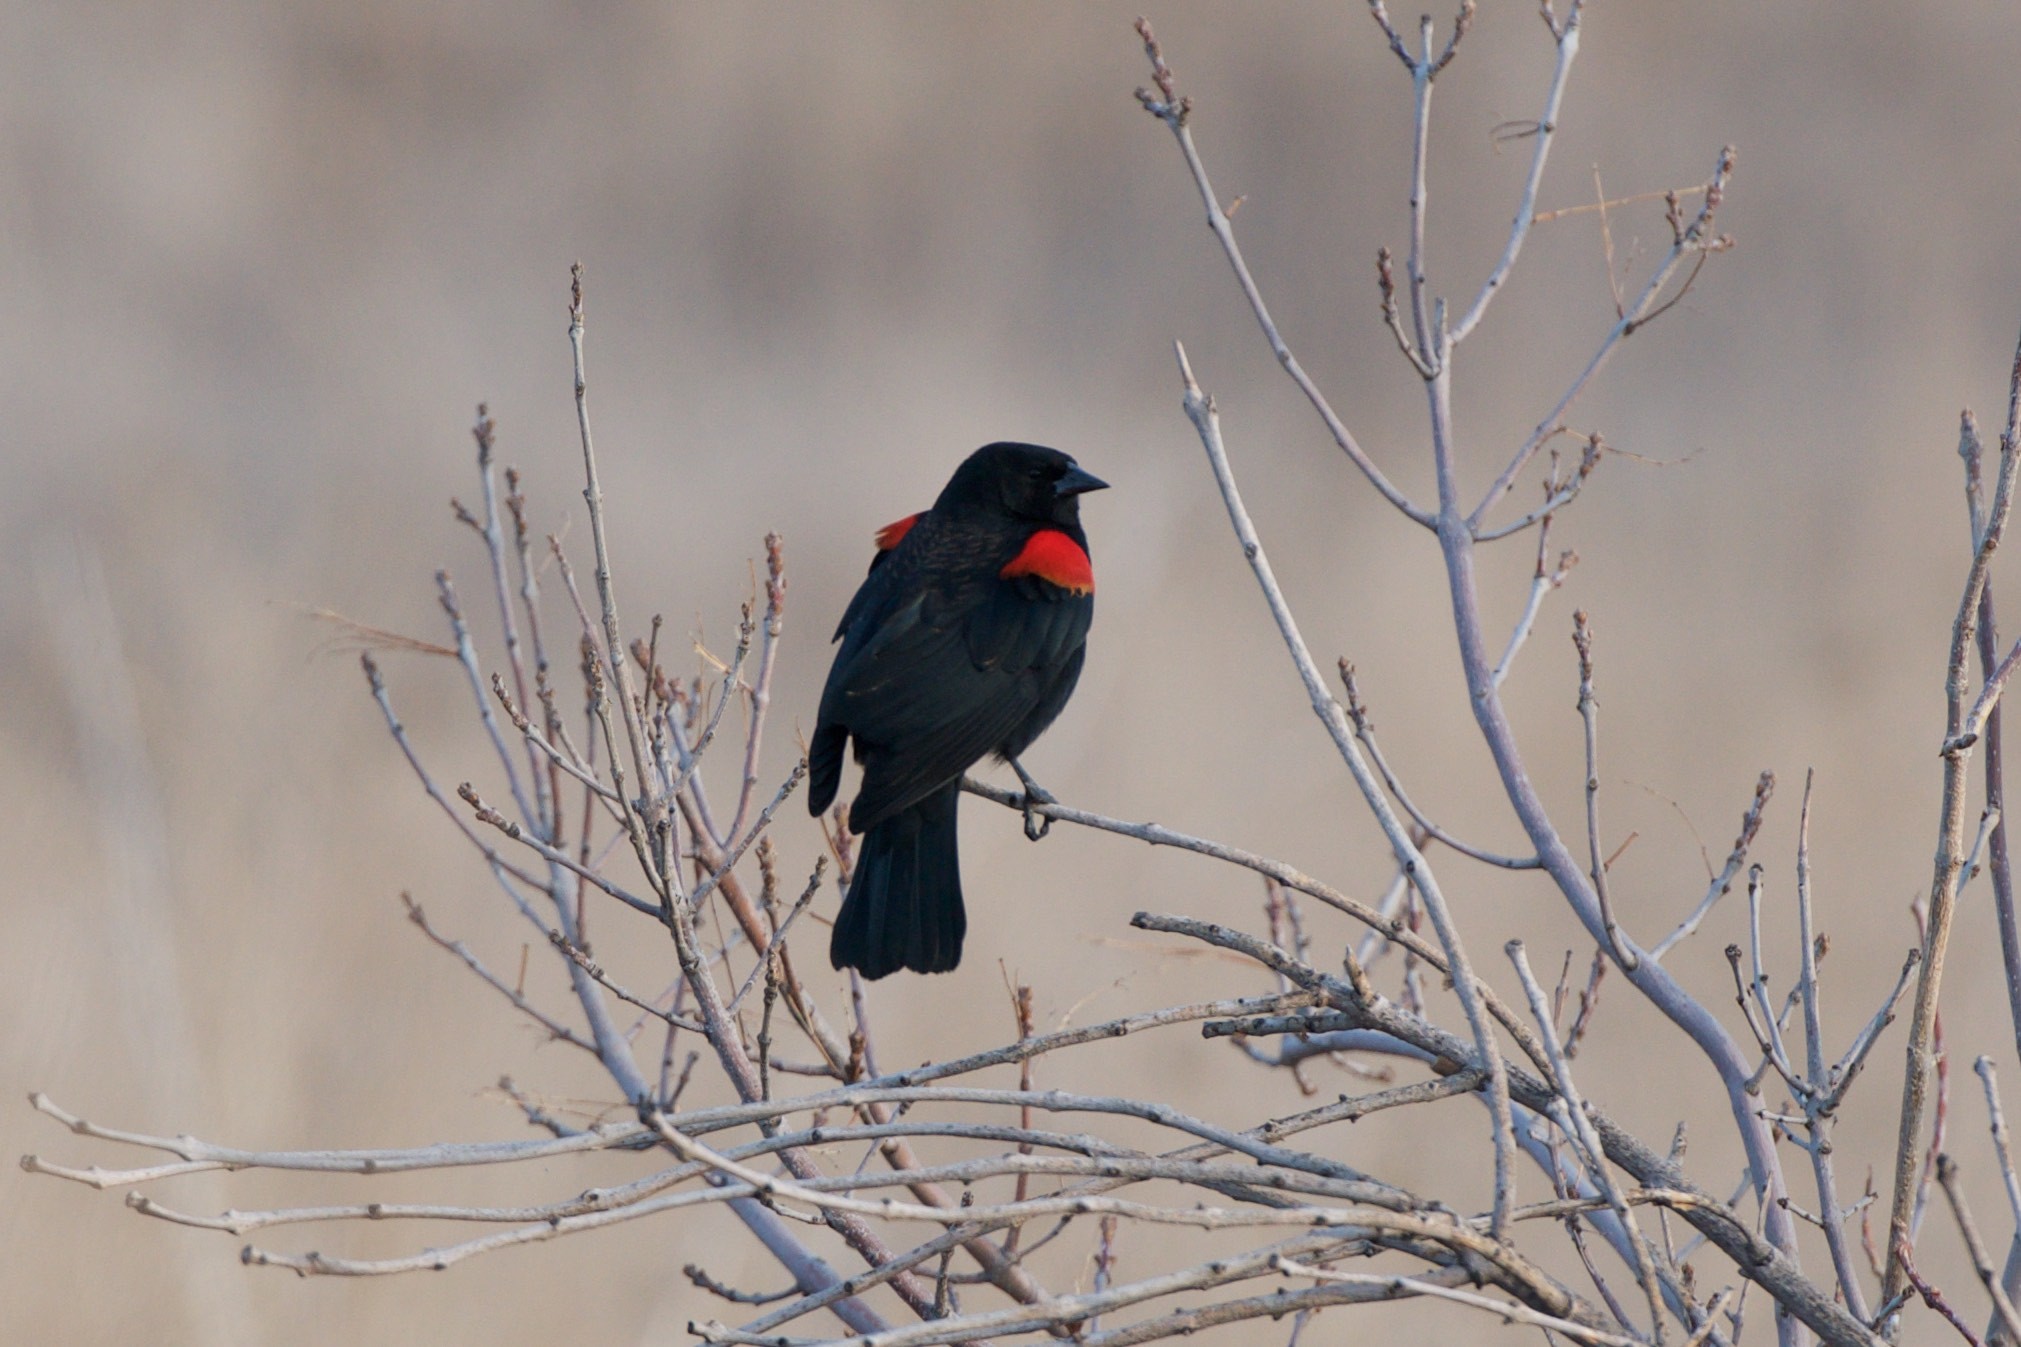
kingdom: Animalia
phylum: Chordata
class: Aves
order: Passeriformes
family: Icteridae
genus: Agelaius
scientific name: Agelaius phoeniceus
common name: Red-winged blackbird
